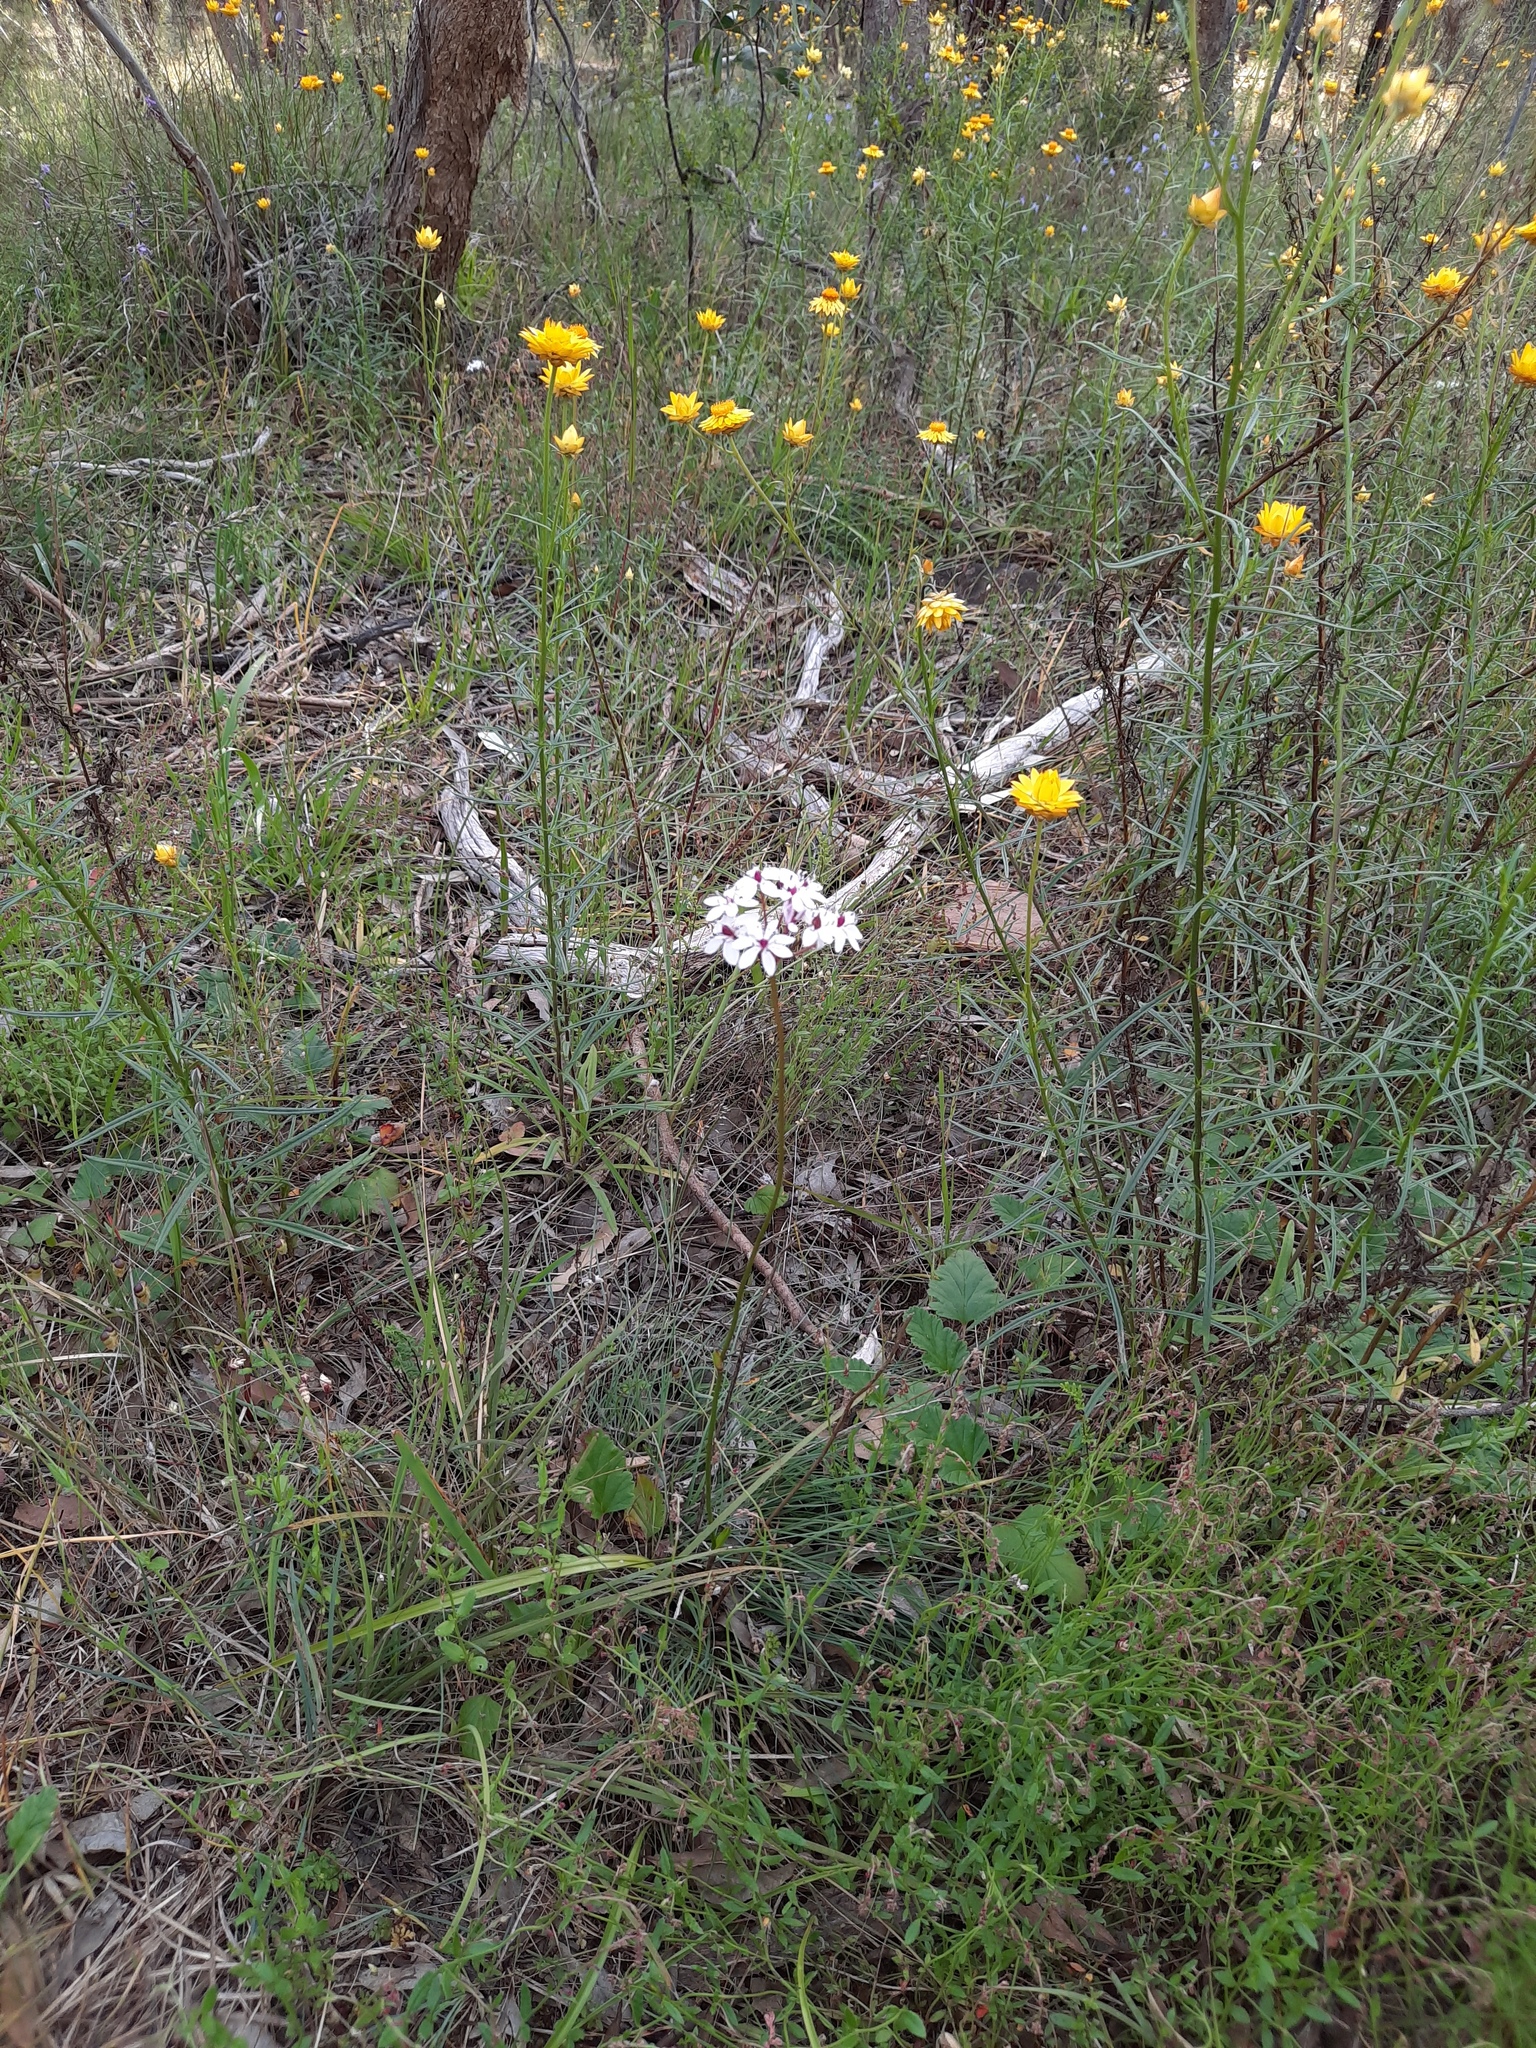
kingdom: Plantae
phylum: Tracheophyta
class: Liliopsida
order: Liliales
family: Colchicaceae
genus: Burchardia
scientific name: Burchardia umbellata
